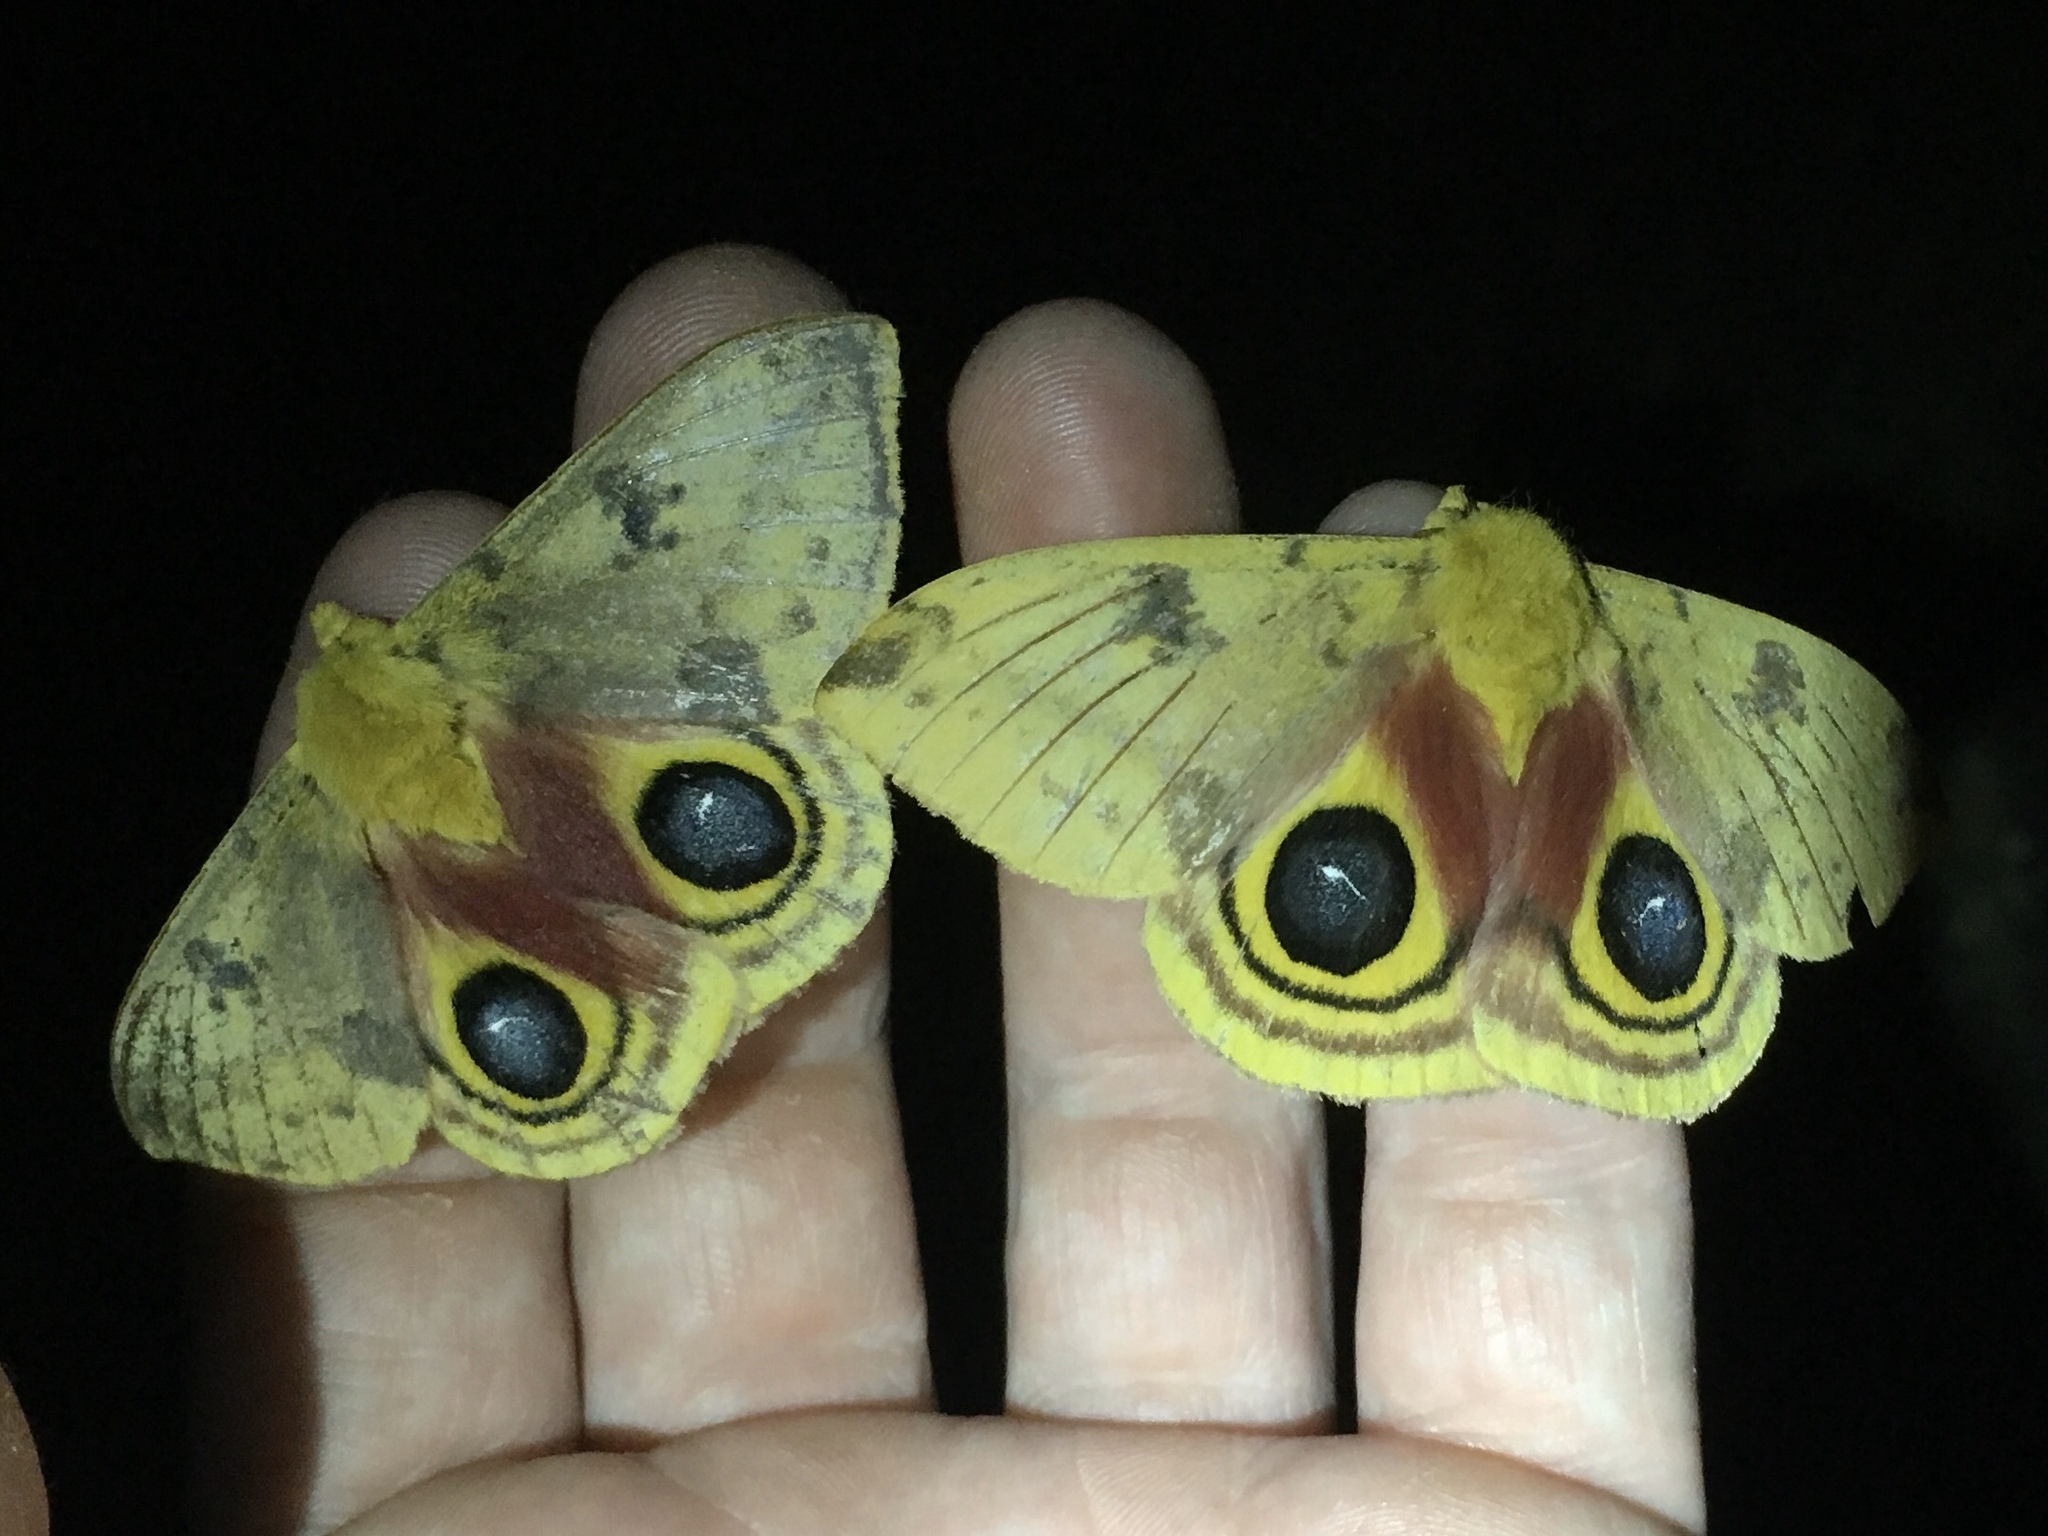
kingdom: Animalia
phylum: Arthropoda
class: Insecta
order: Lepidoptera
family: Saturniidae
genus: Automeris
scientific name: Automeris io
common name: Io moth
